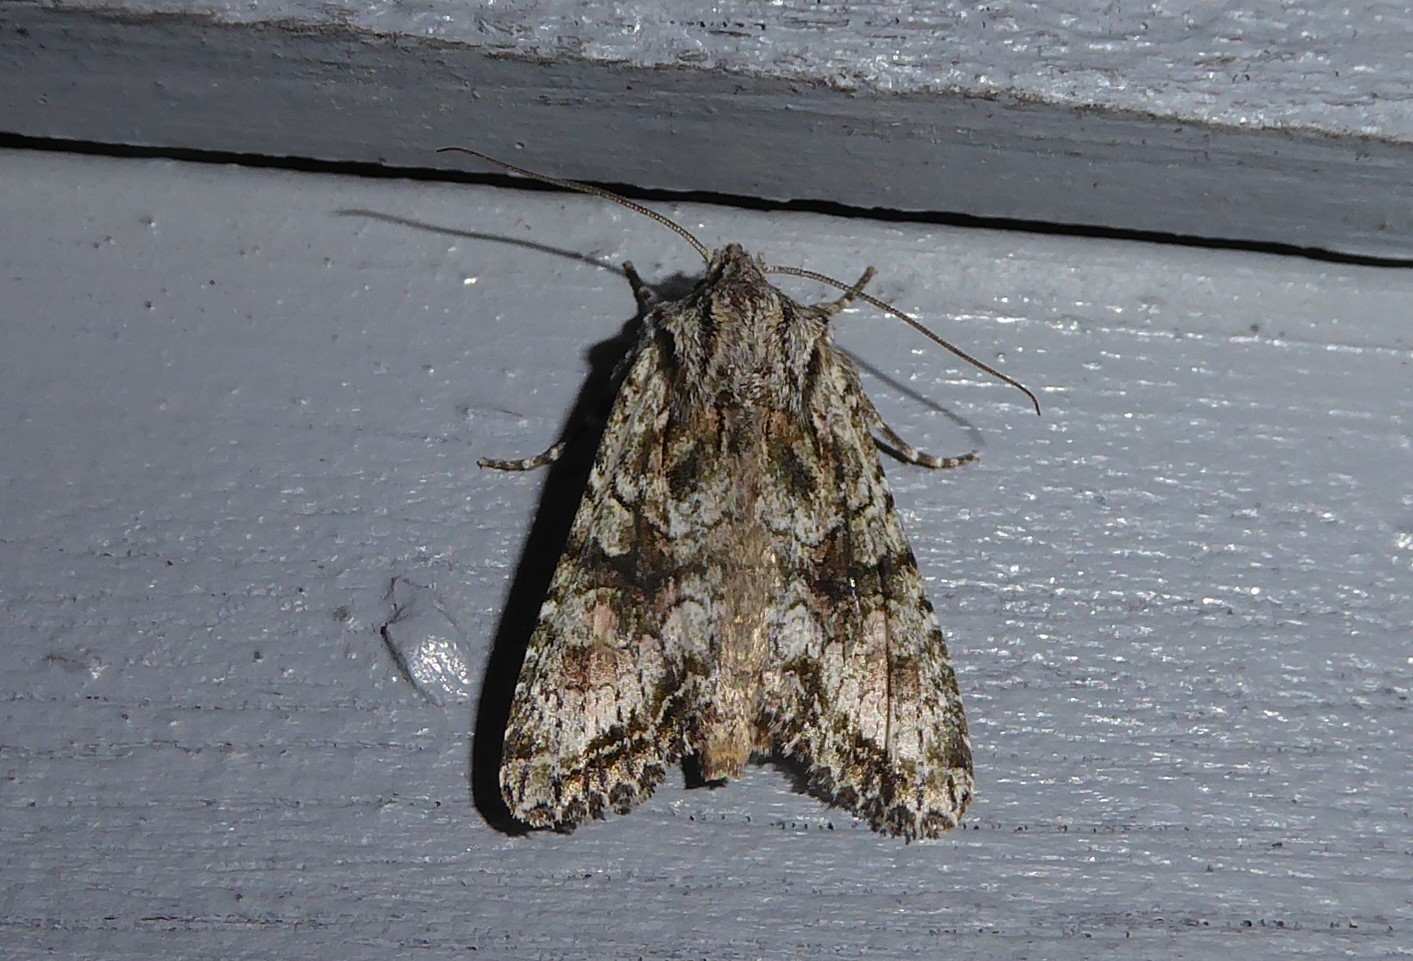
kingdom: Animalia
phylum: Arthropoda
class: Insecta
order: Lepidoptera
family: Noctuidae
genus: Ichneutica
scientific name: Ichneutica mutans
